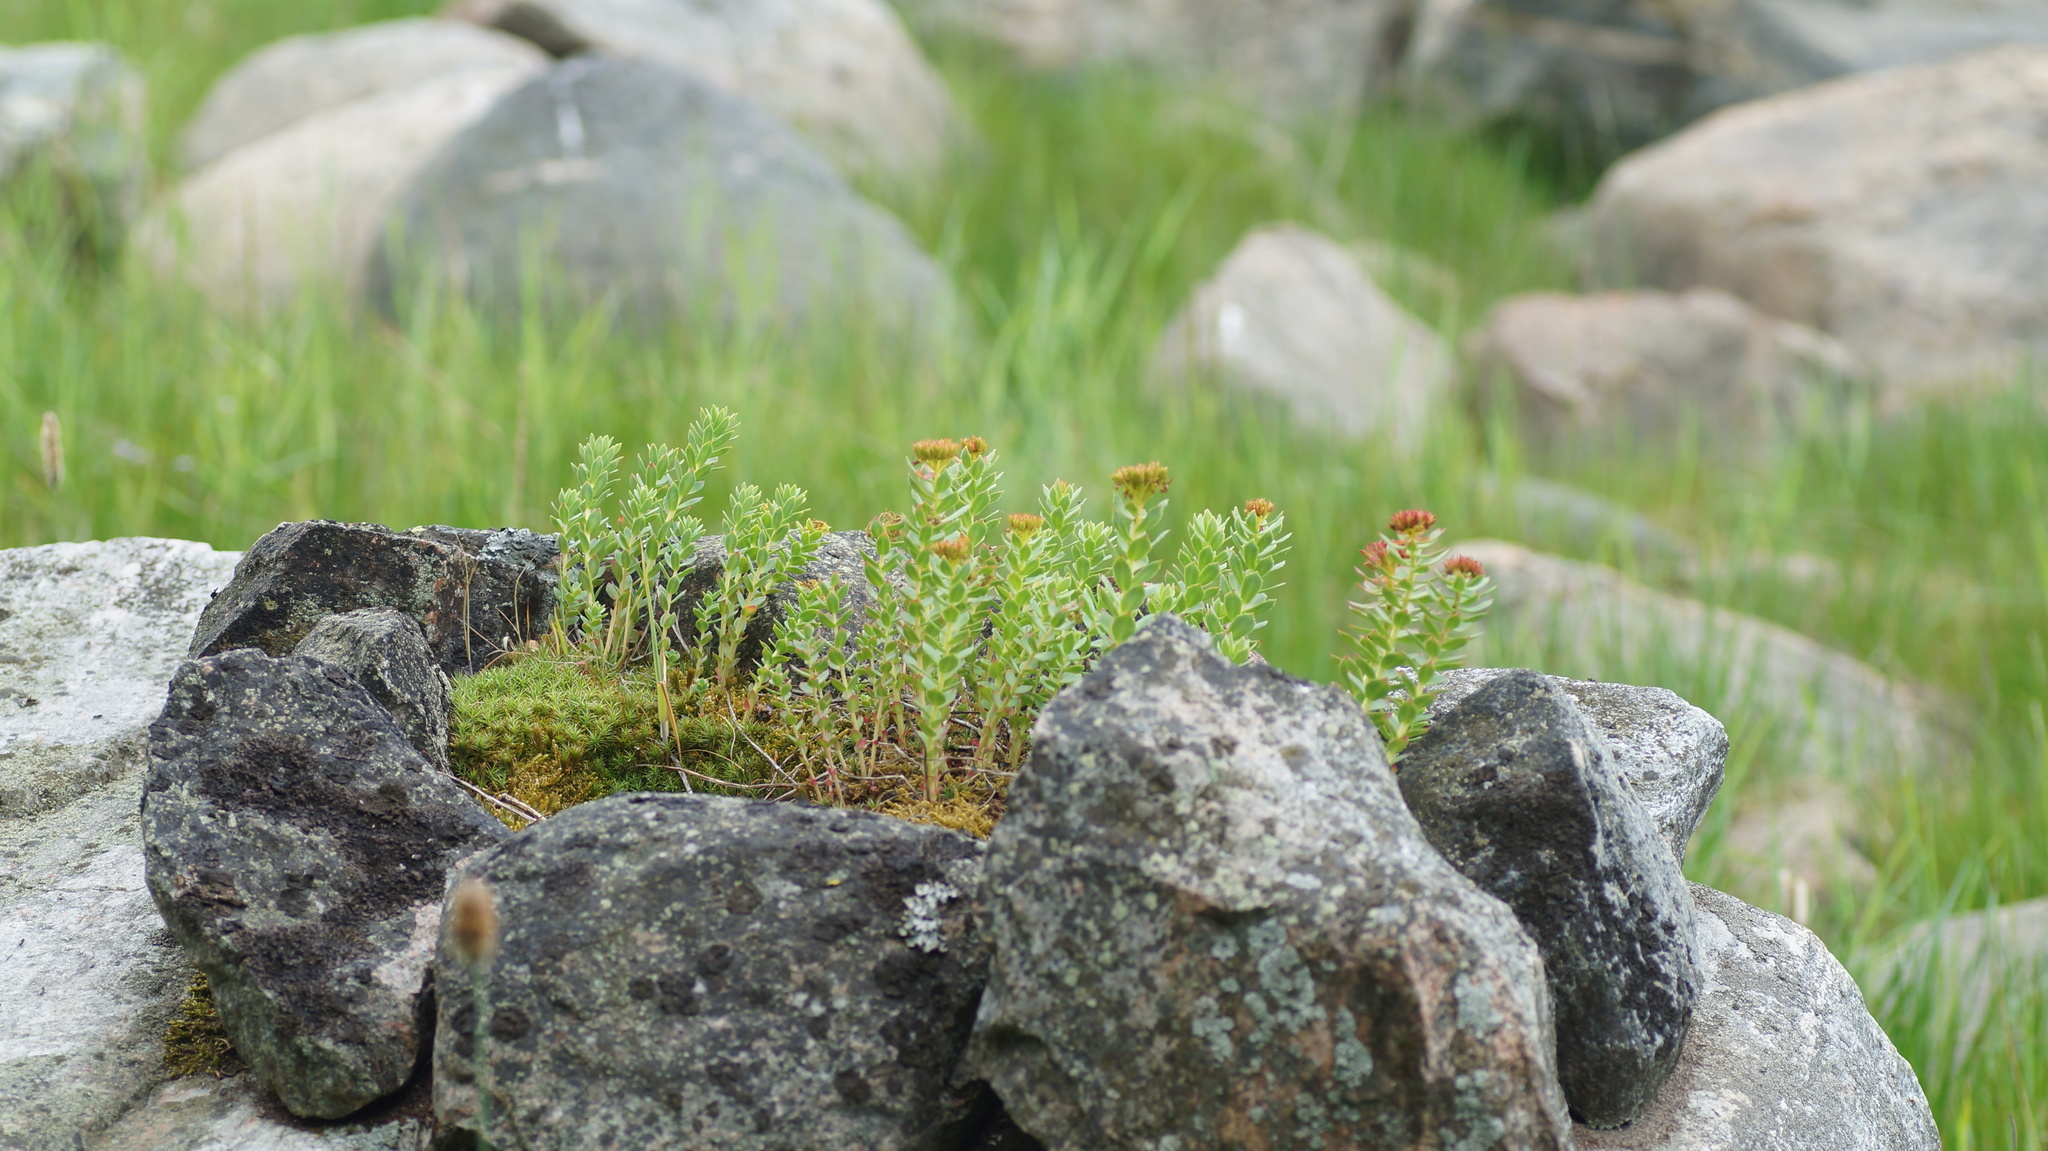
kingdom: Plantae
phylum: Tracheophyta
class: Magnoliopsida
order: Saxifragales
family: Crassulaceae
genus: Rhodiola
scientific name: Rhodiola rosea
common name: Roseroot
